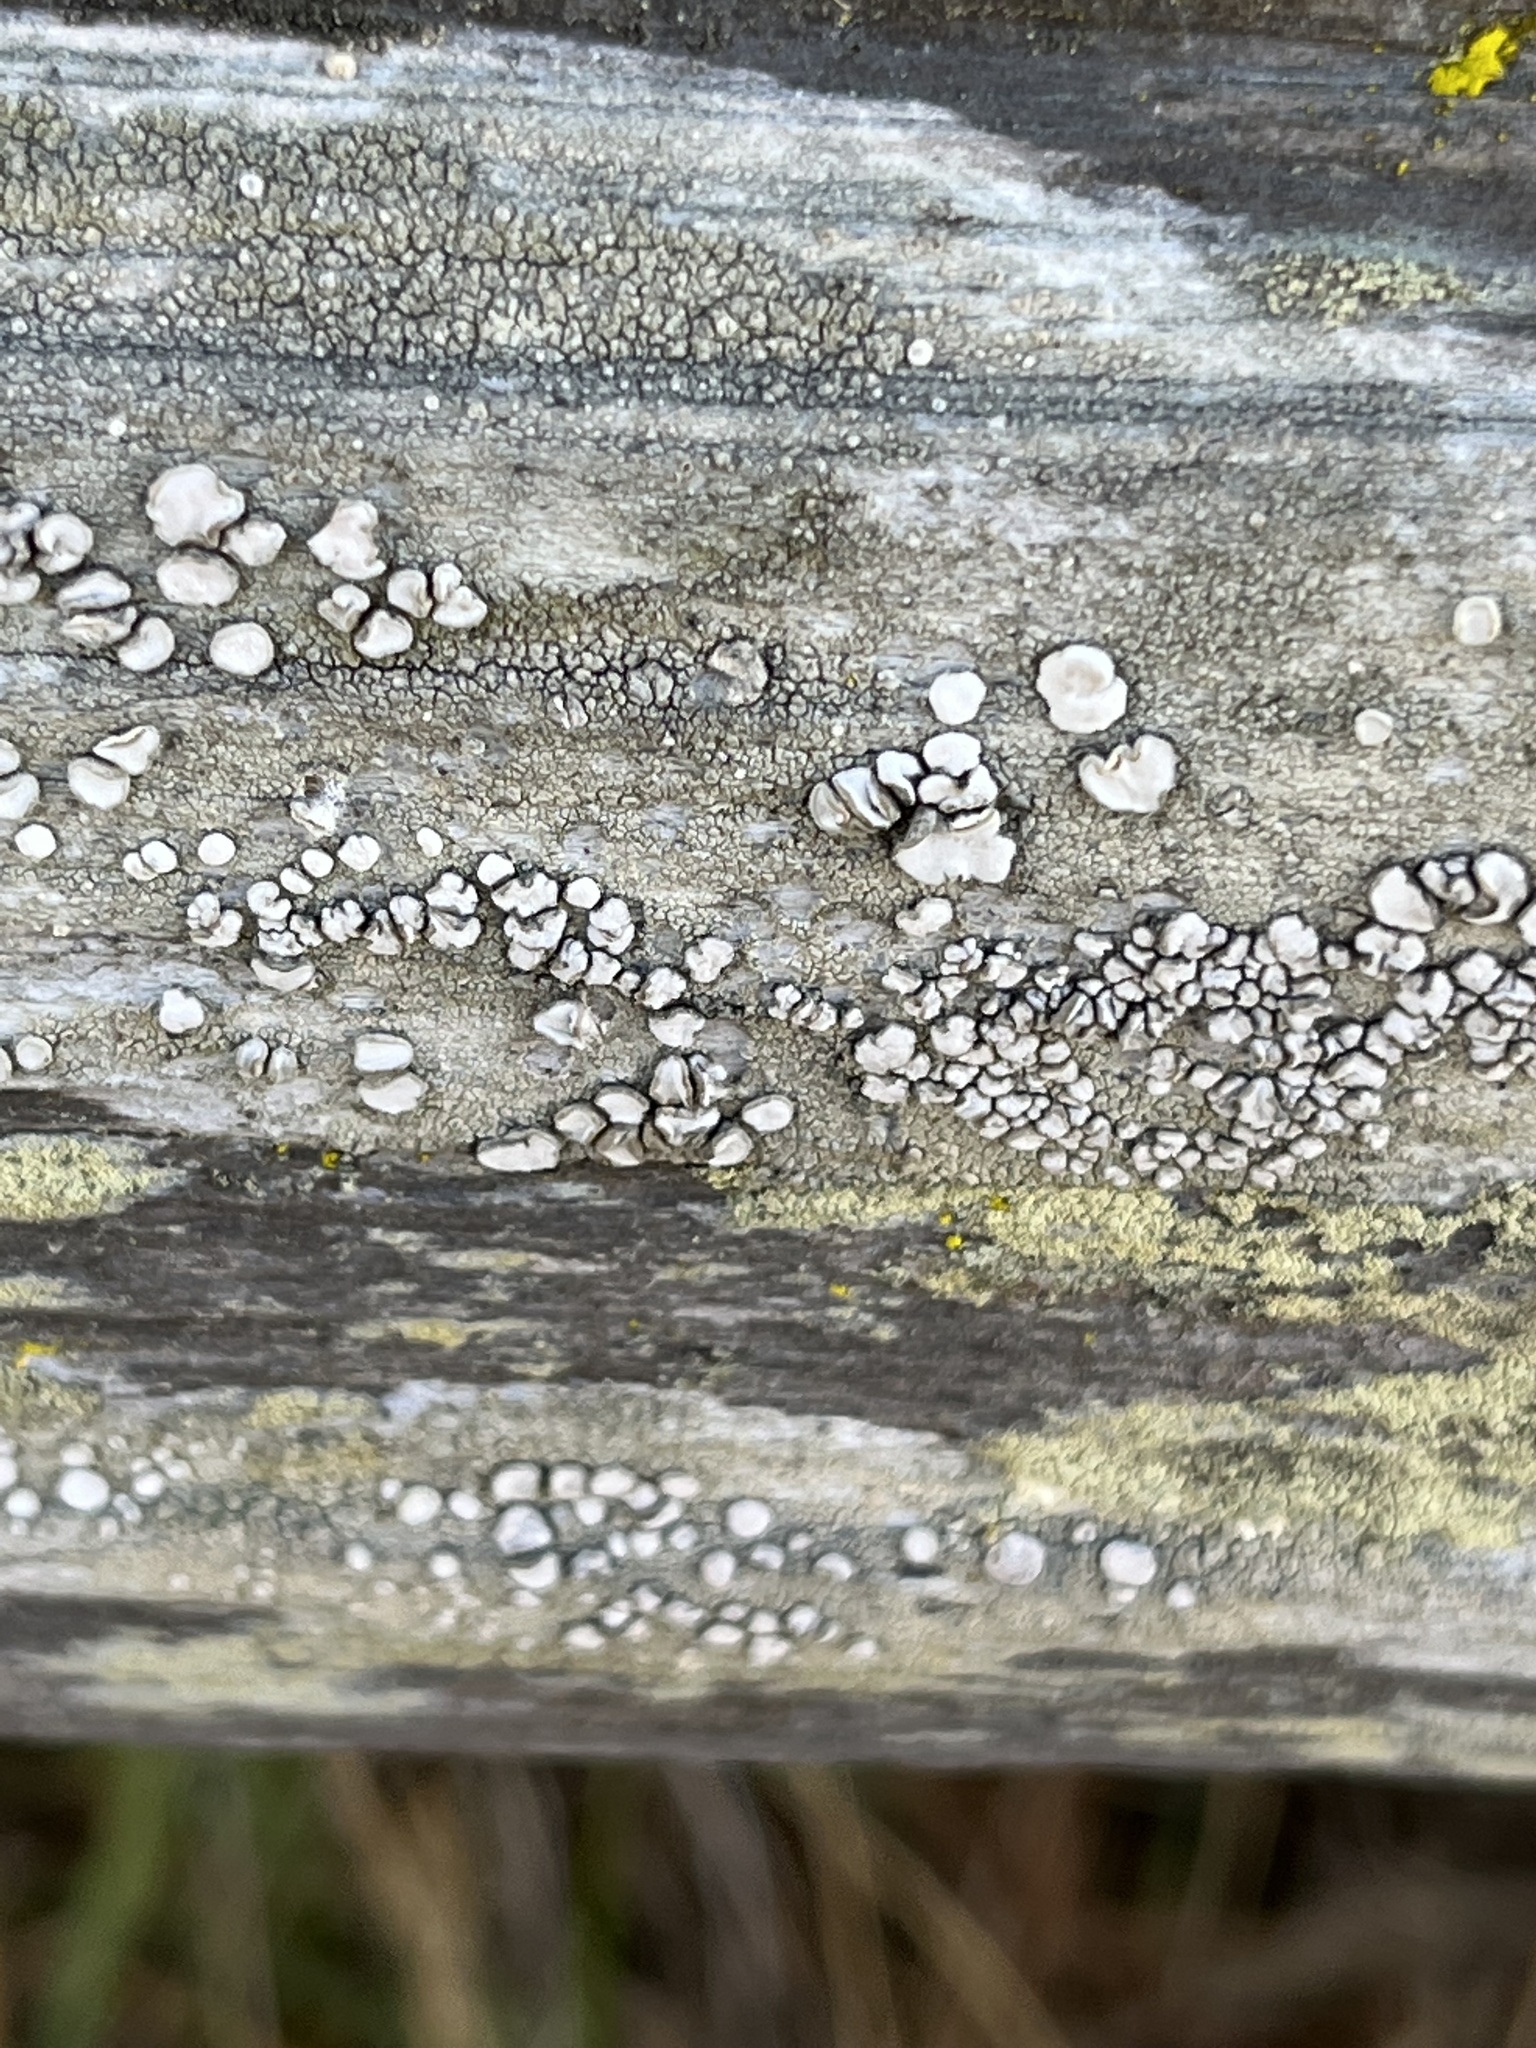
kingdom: Fungi
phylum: Ascomycota
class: Lecanoromycetes
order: Lecanorales
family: Lecanoraceae
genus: Lecanora
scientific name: Lecanora caesiorubella
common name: Frosted rim-lichen
